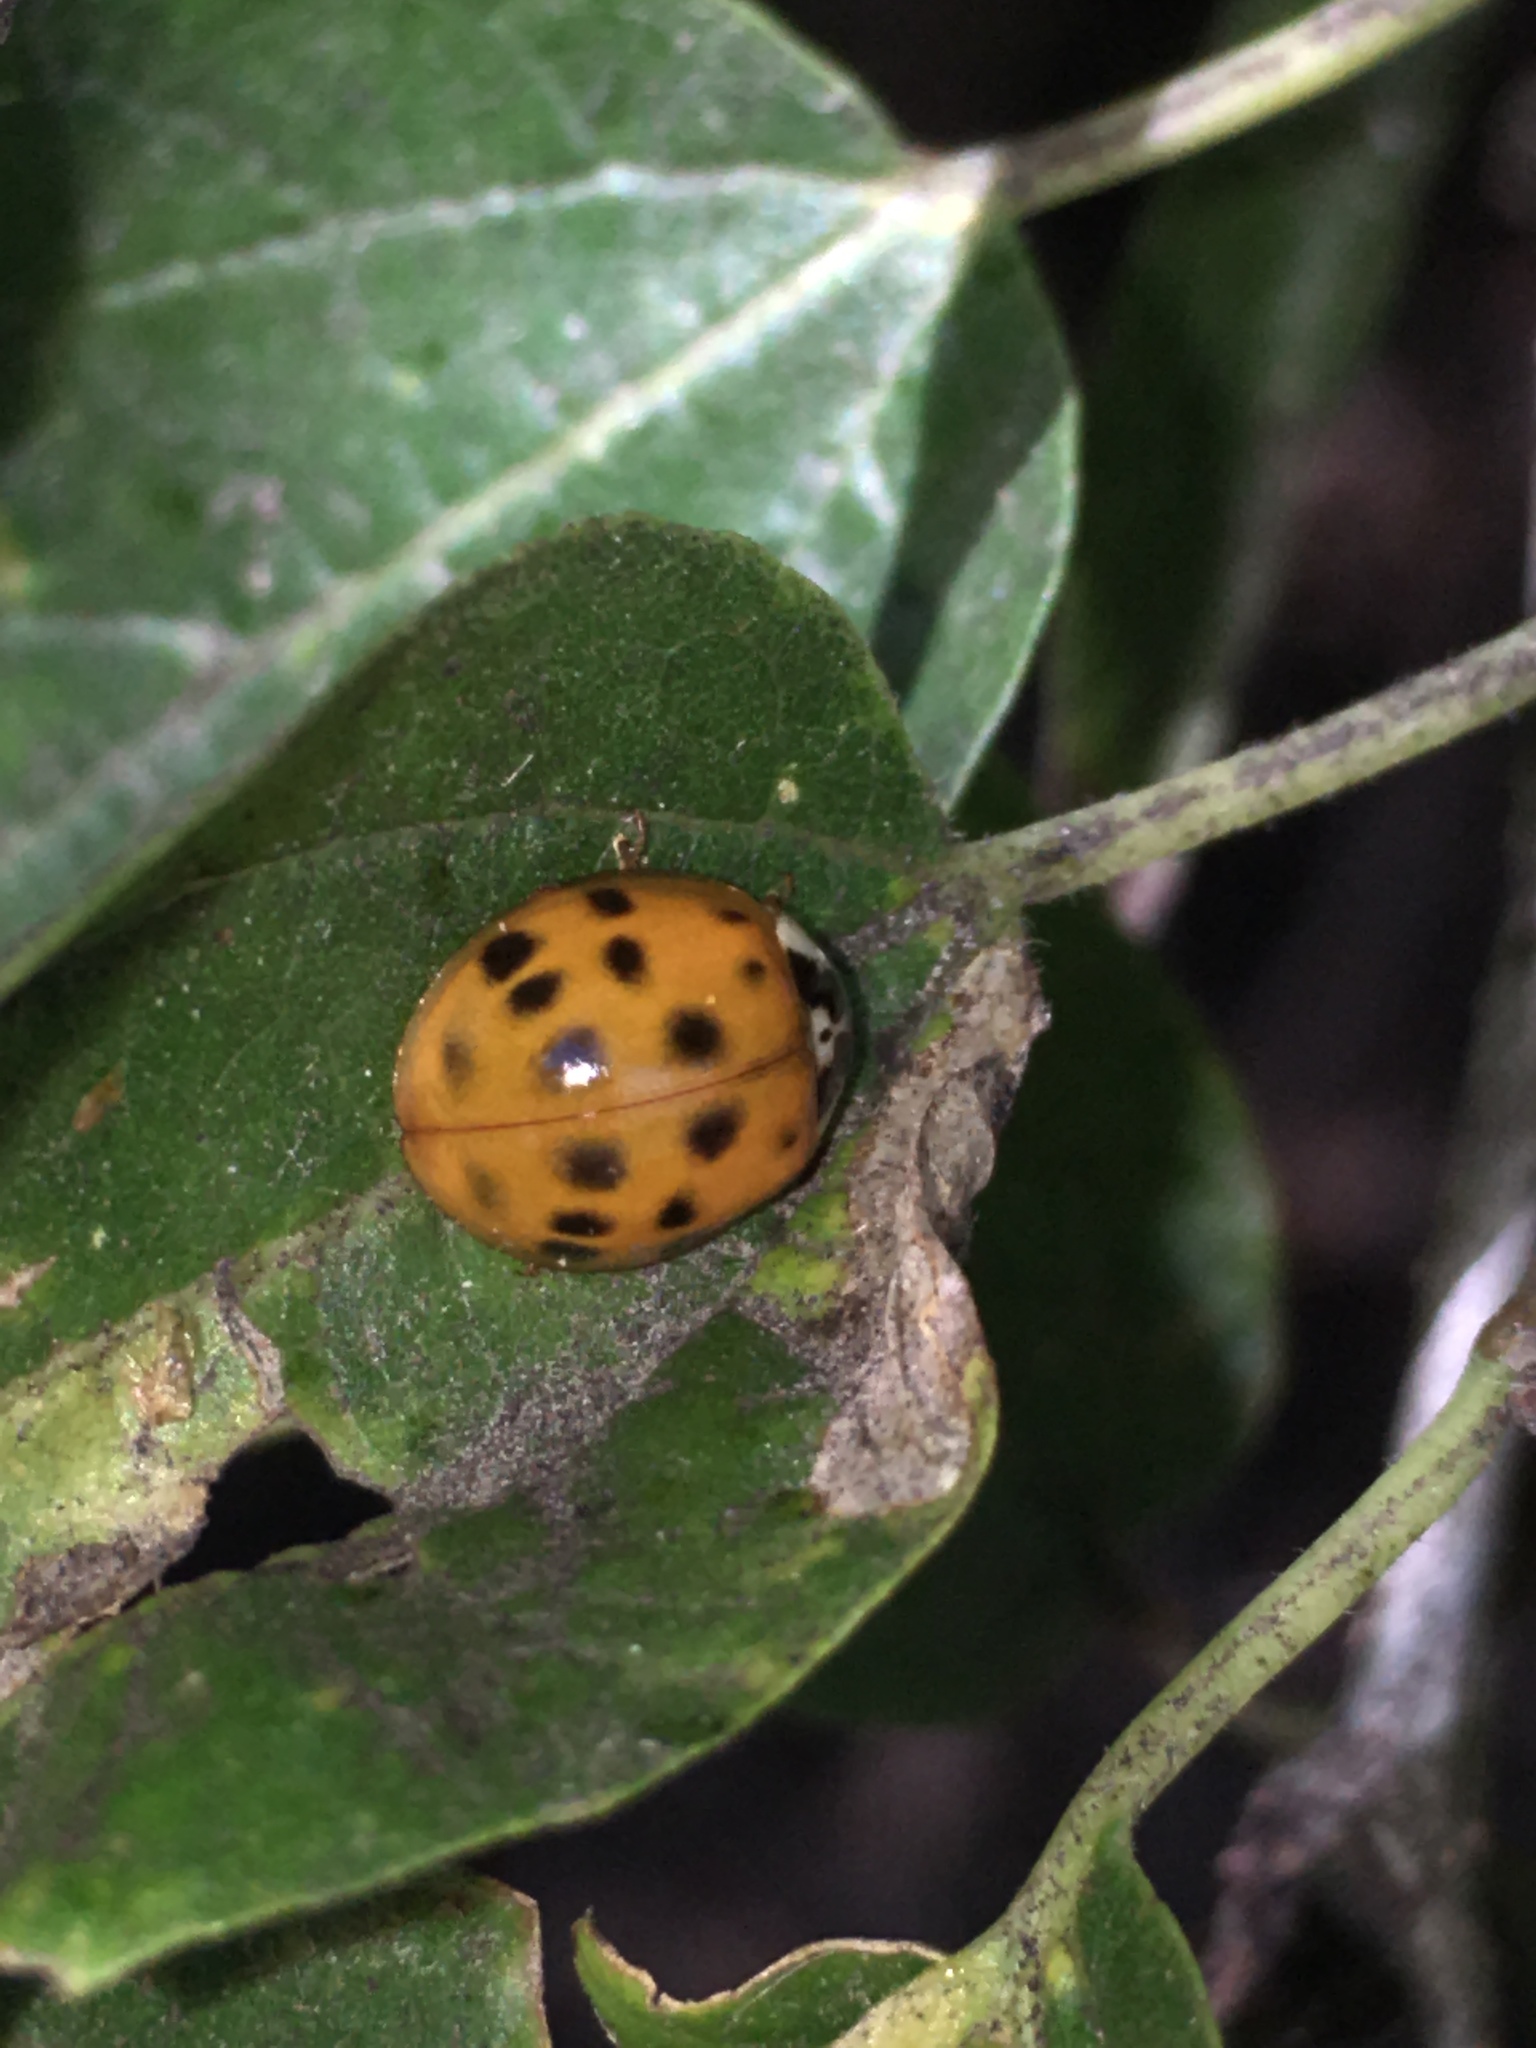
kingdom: Animalia
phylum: Arthropoda
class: Insecta
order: Coleoptera
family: Coccinellidae
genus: Harmonia
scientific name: Harmonia axyridis
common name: Harlequin ladybird
